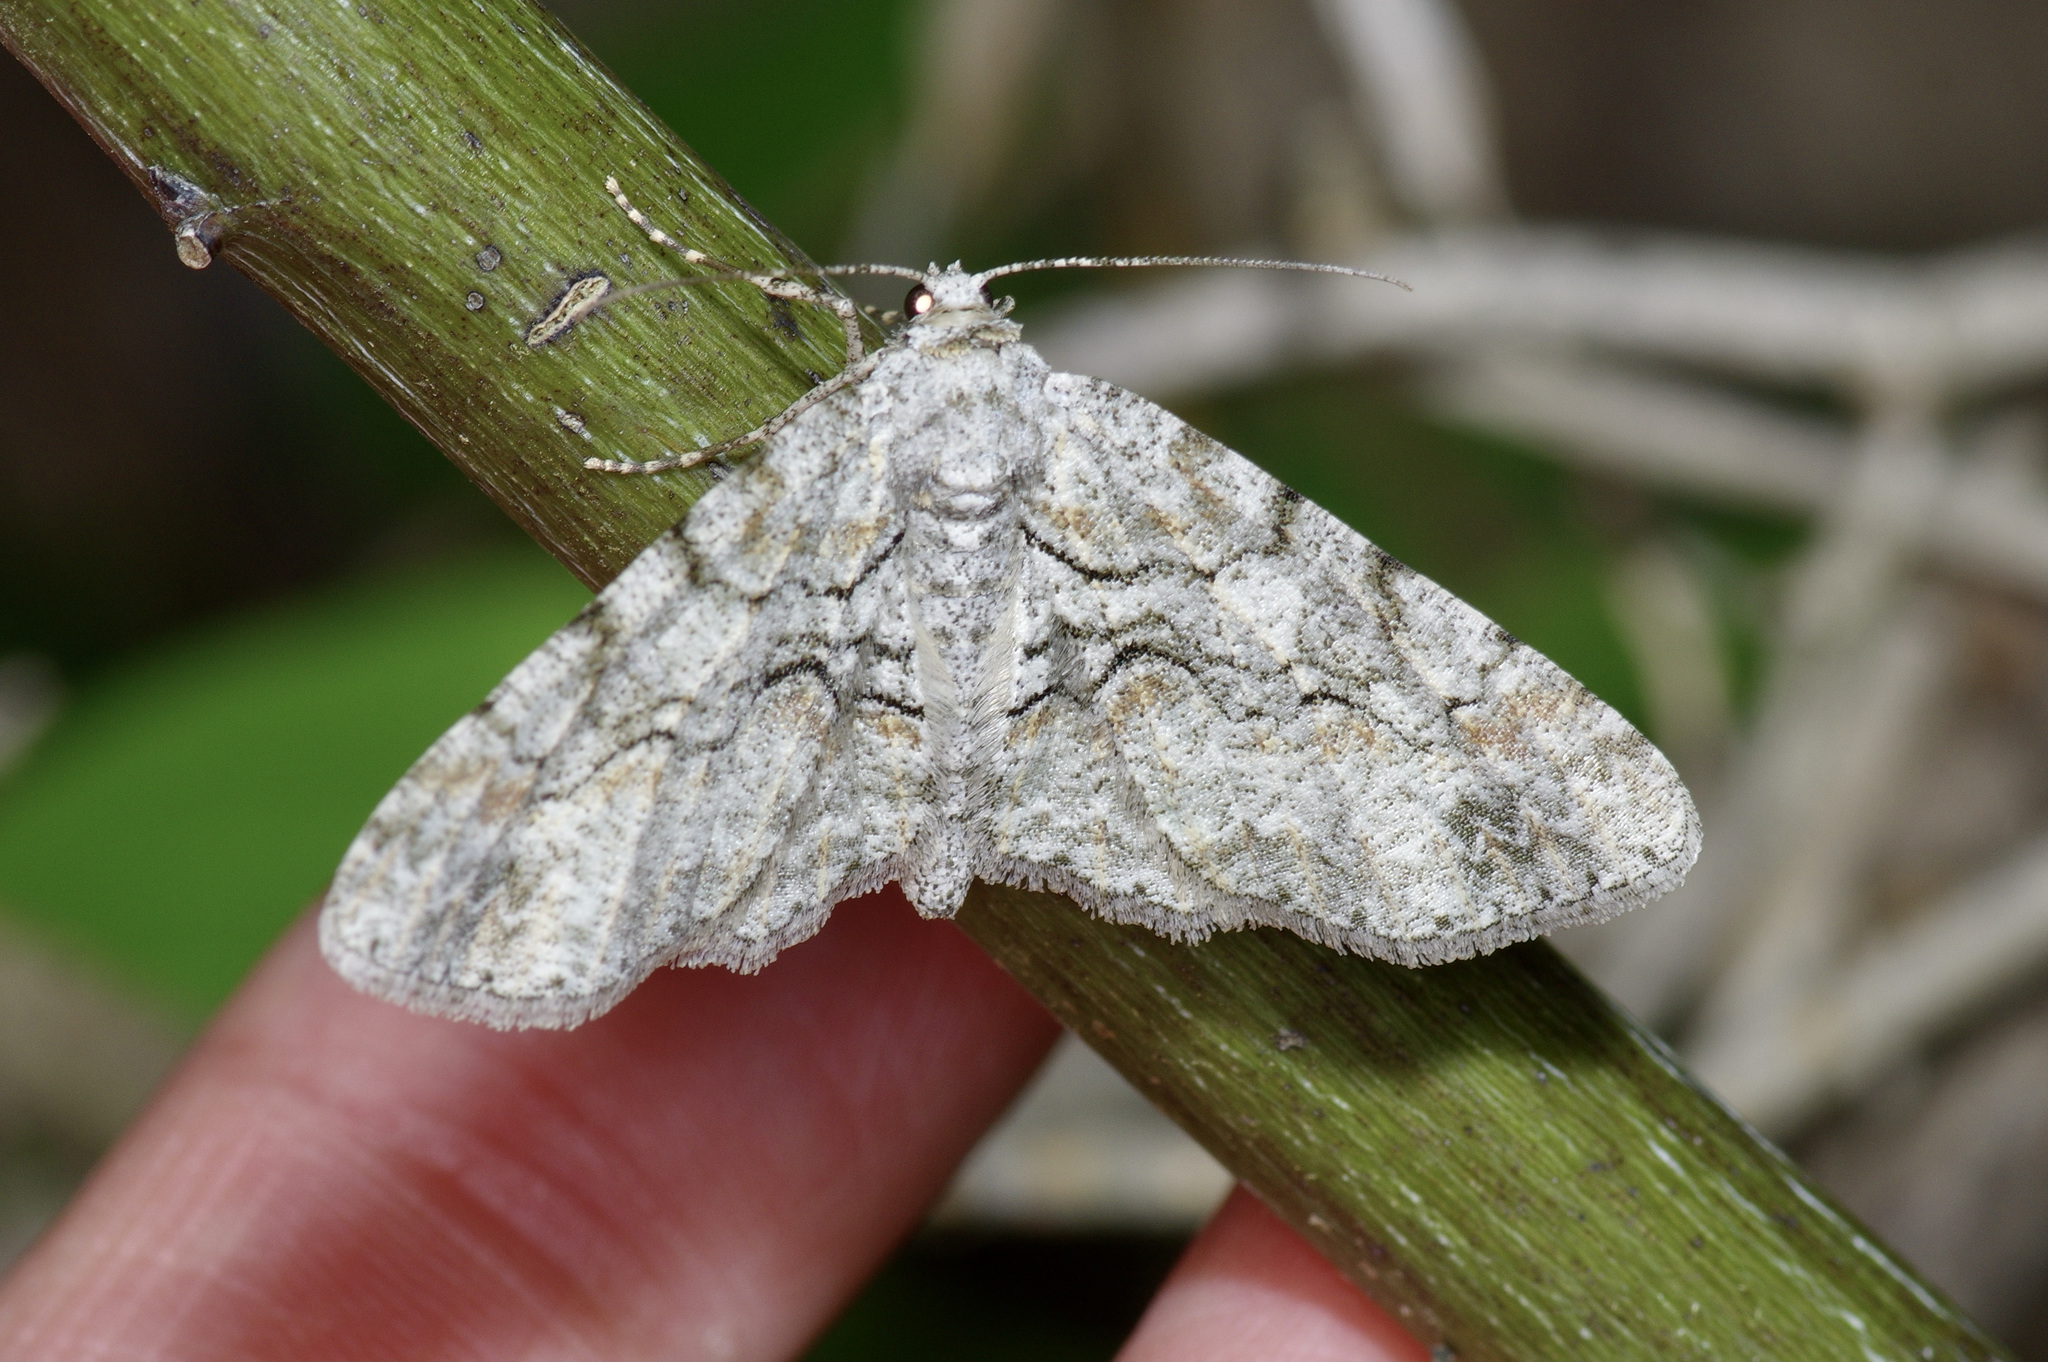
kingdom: Animalia
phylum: Arthropoda
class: Insecta
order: Lepidoptera
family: Geometridae
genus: Iridopsis
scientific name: Iridopsis defectaria
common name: Brown-shaded gray
